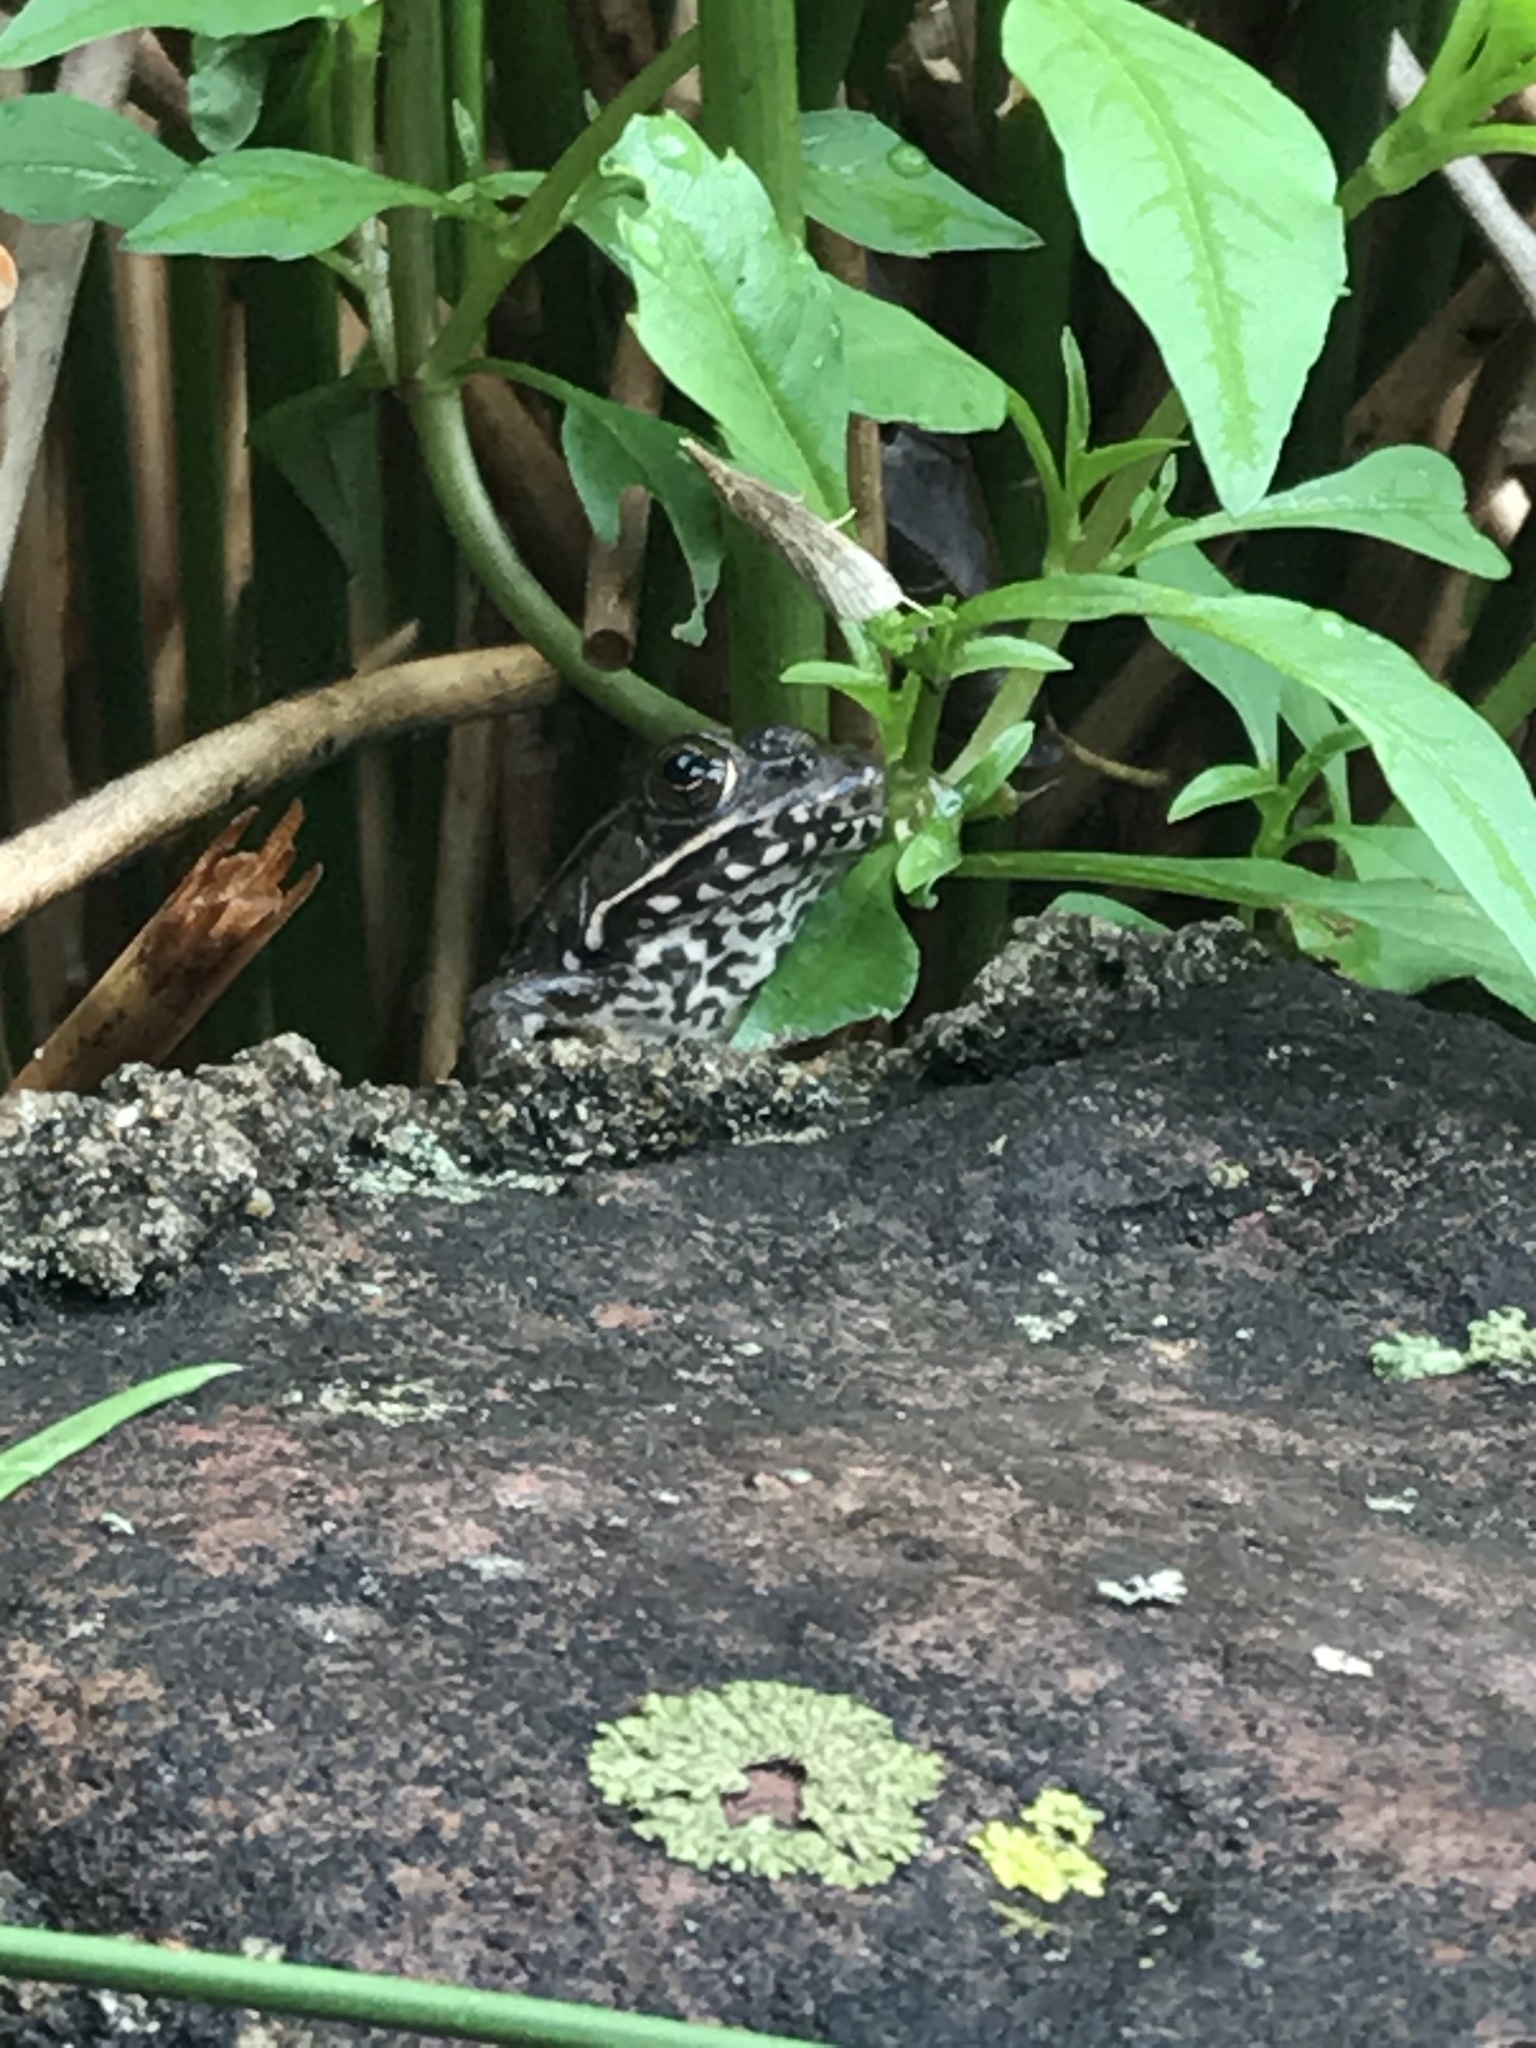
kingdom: Animalia
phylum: Chordata
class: Amphibia
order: Anura
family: Ranidae
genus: Lithobates
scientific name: Lithobates clamitans
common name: Green frog
